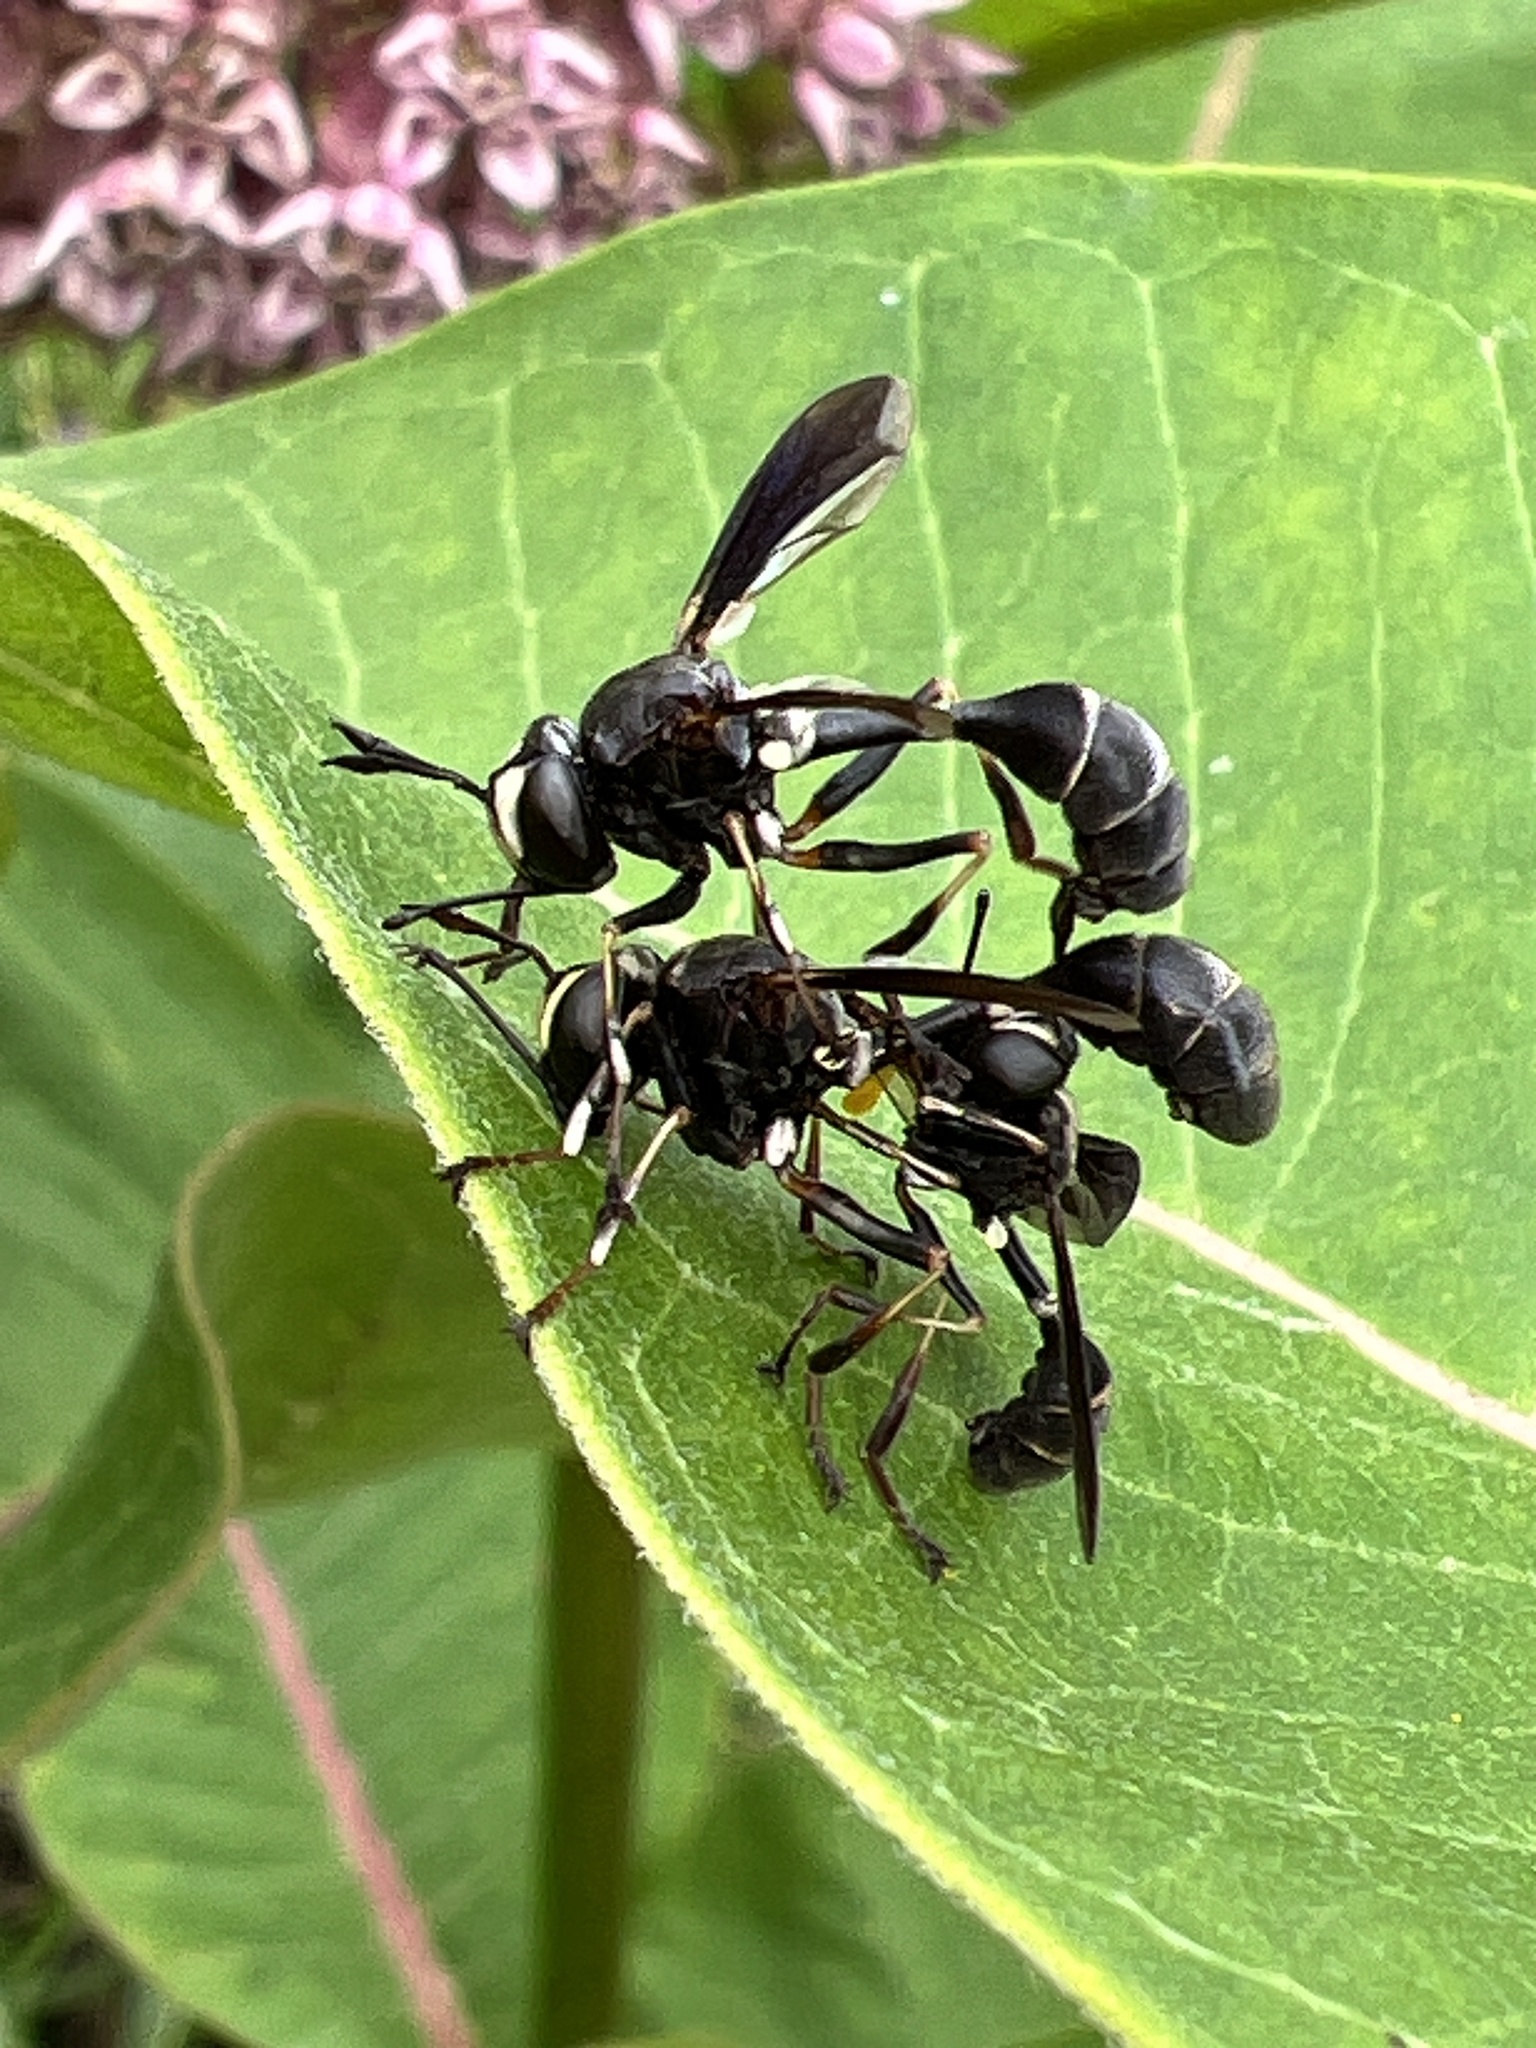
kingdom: Animalia
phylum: Arthropoda
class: Insecta
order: Diptera
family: Conopidae
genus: Physocephala
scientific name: Physocephala tibialis
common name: Common eastern physocephala
